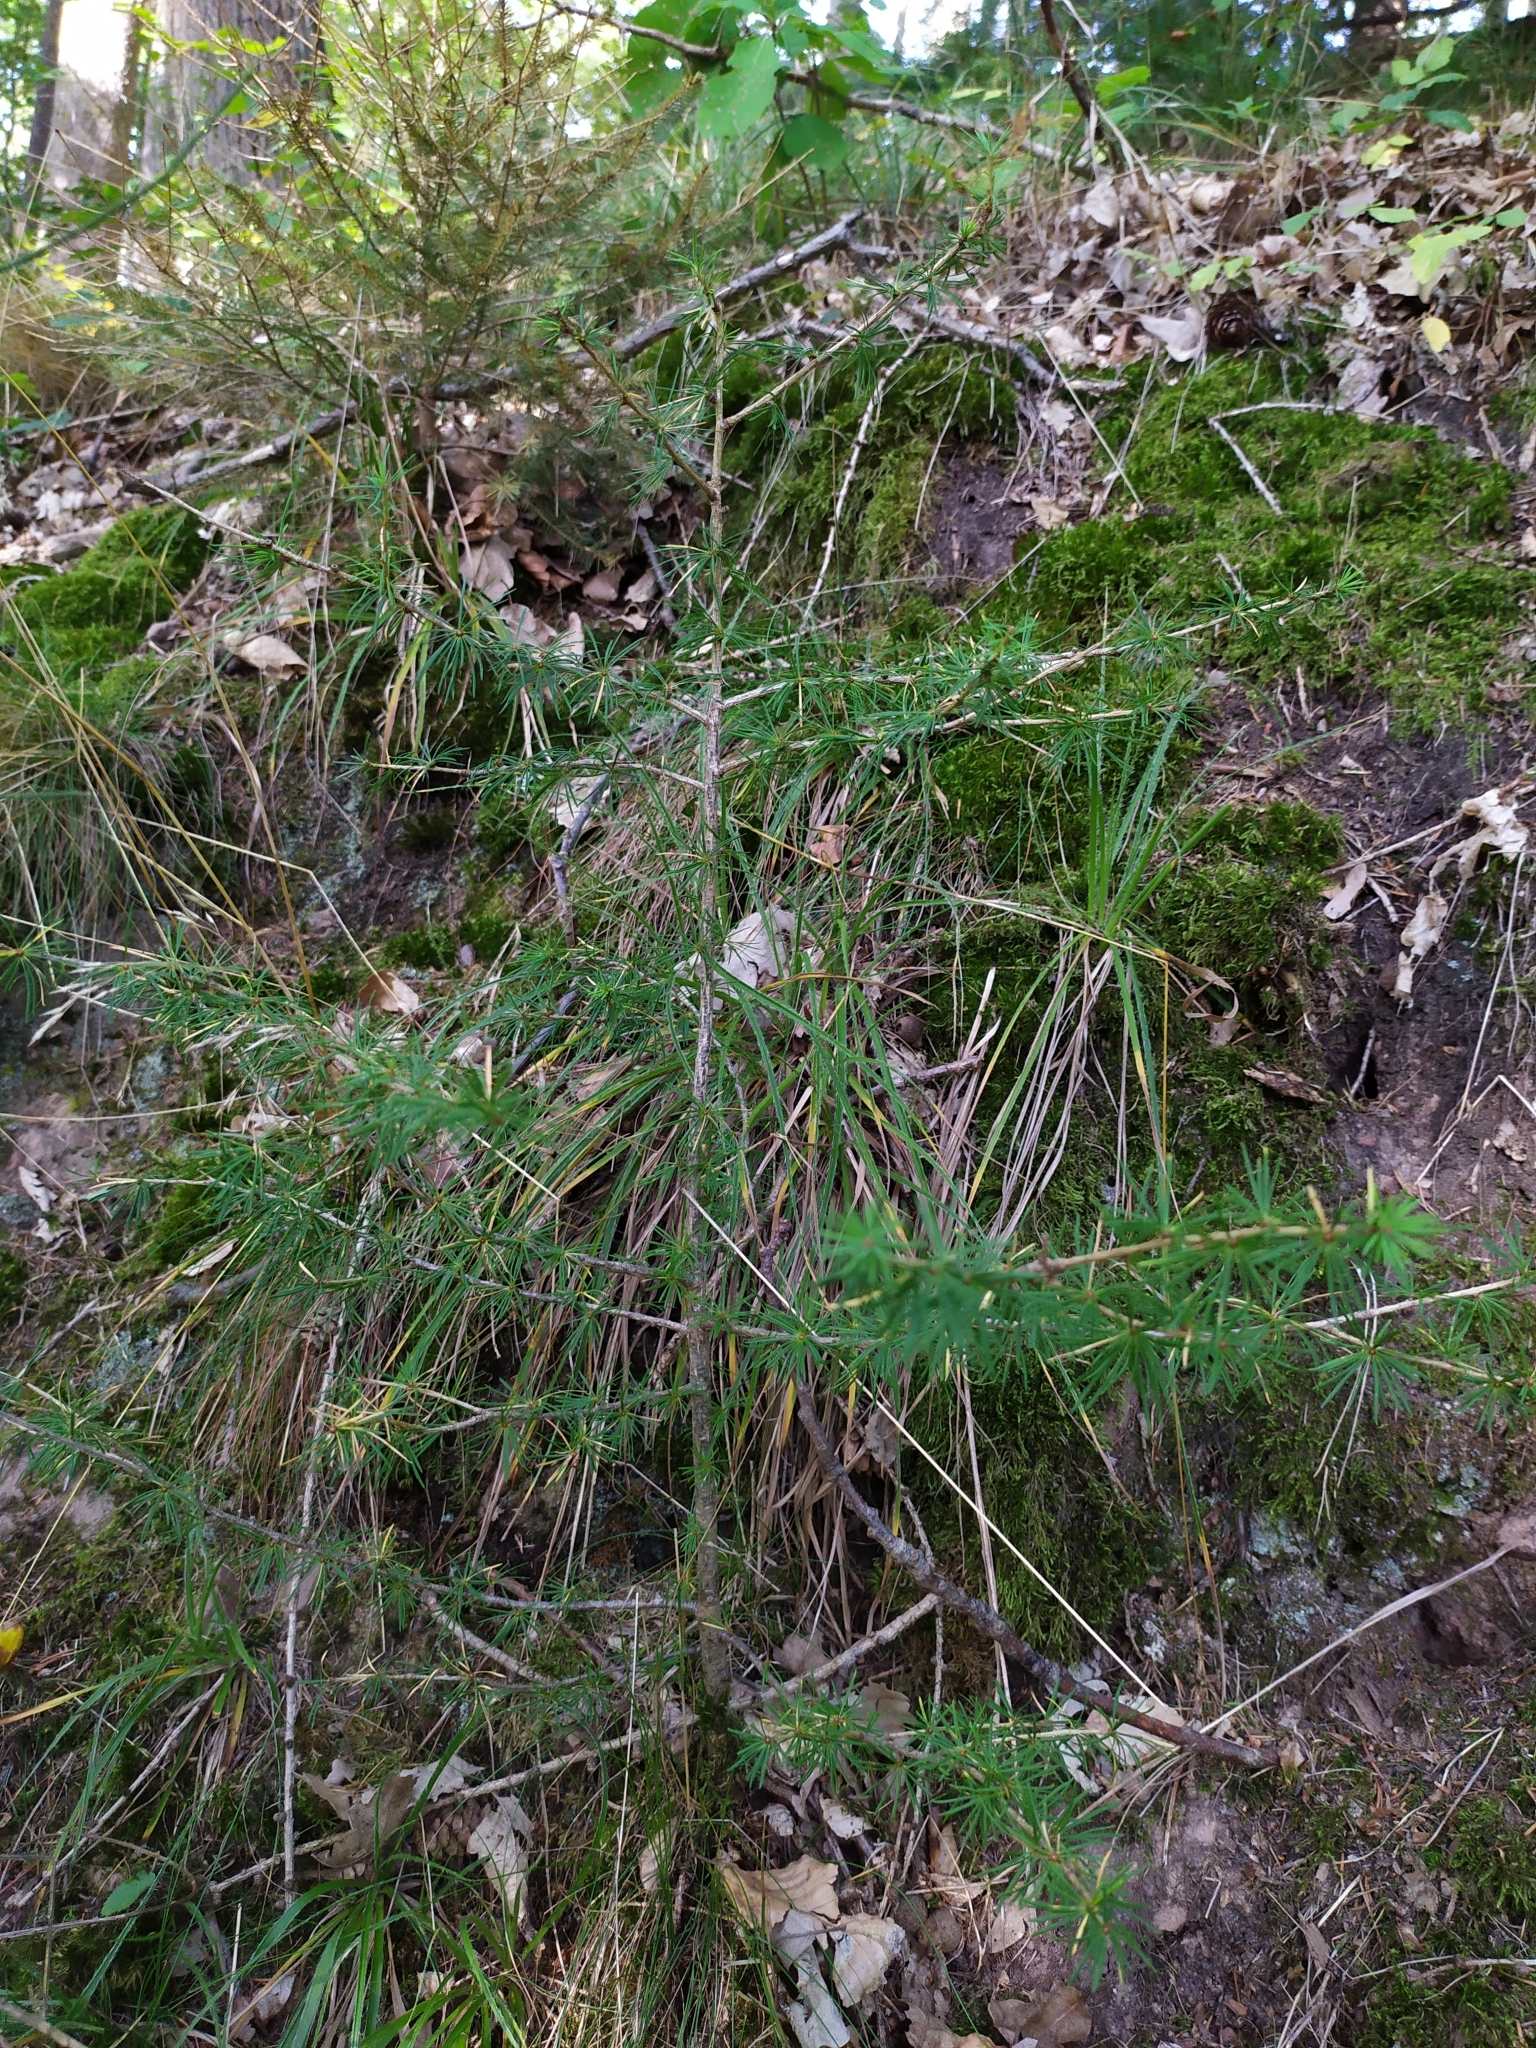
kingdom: Plantae
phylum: Tracheophyta
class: Pinopsida
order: Pinales
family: Pinaceae
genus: Larix
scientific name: Larix decidua
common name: European larch
